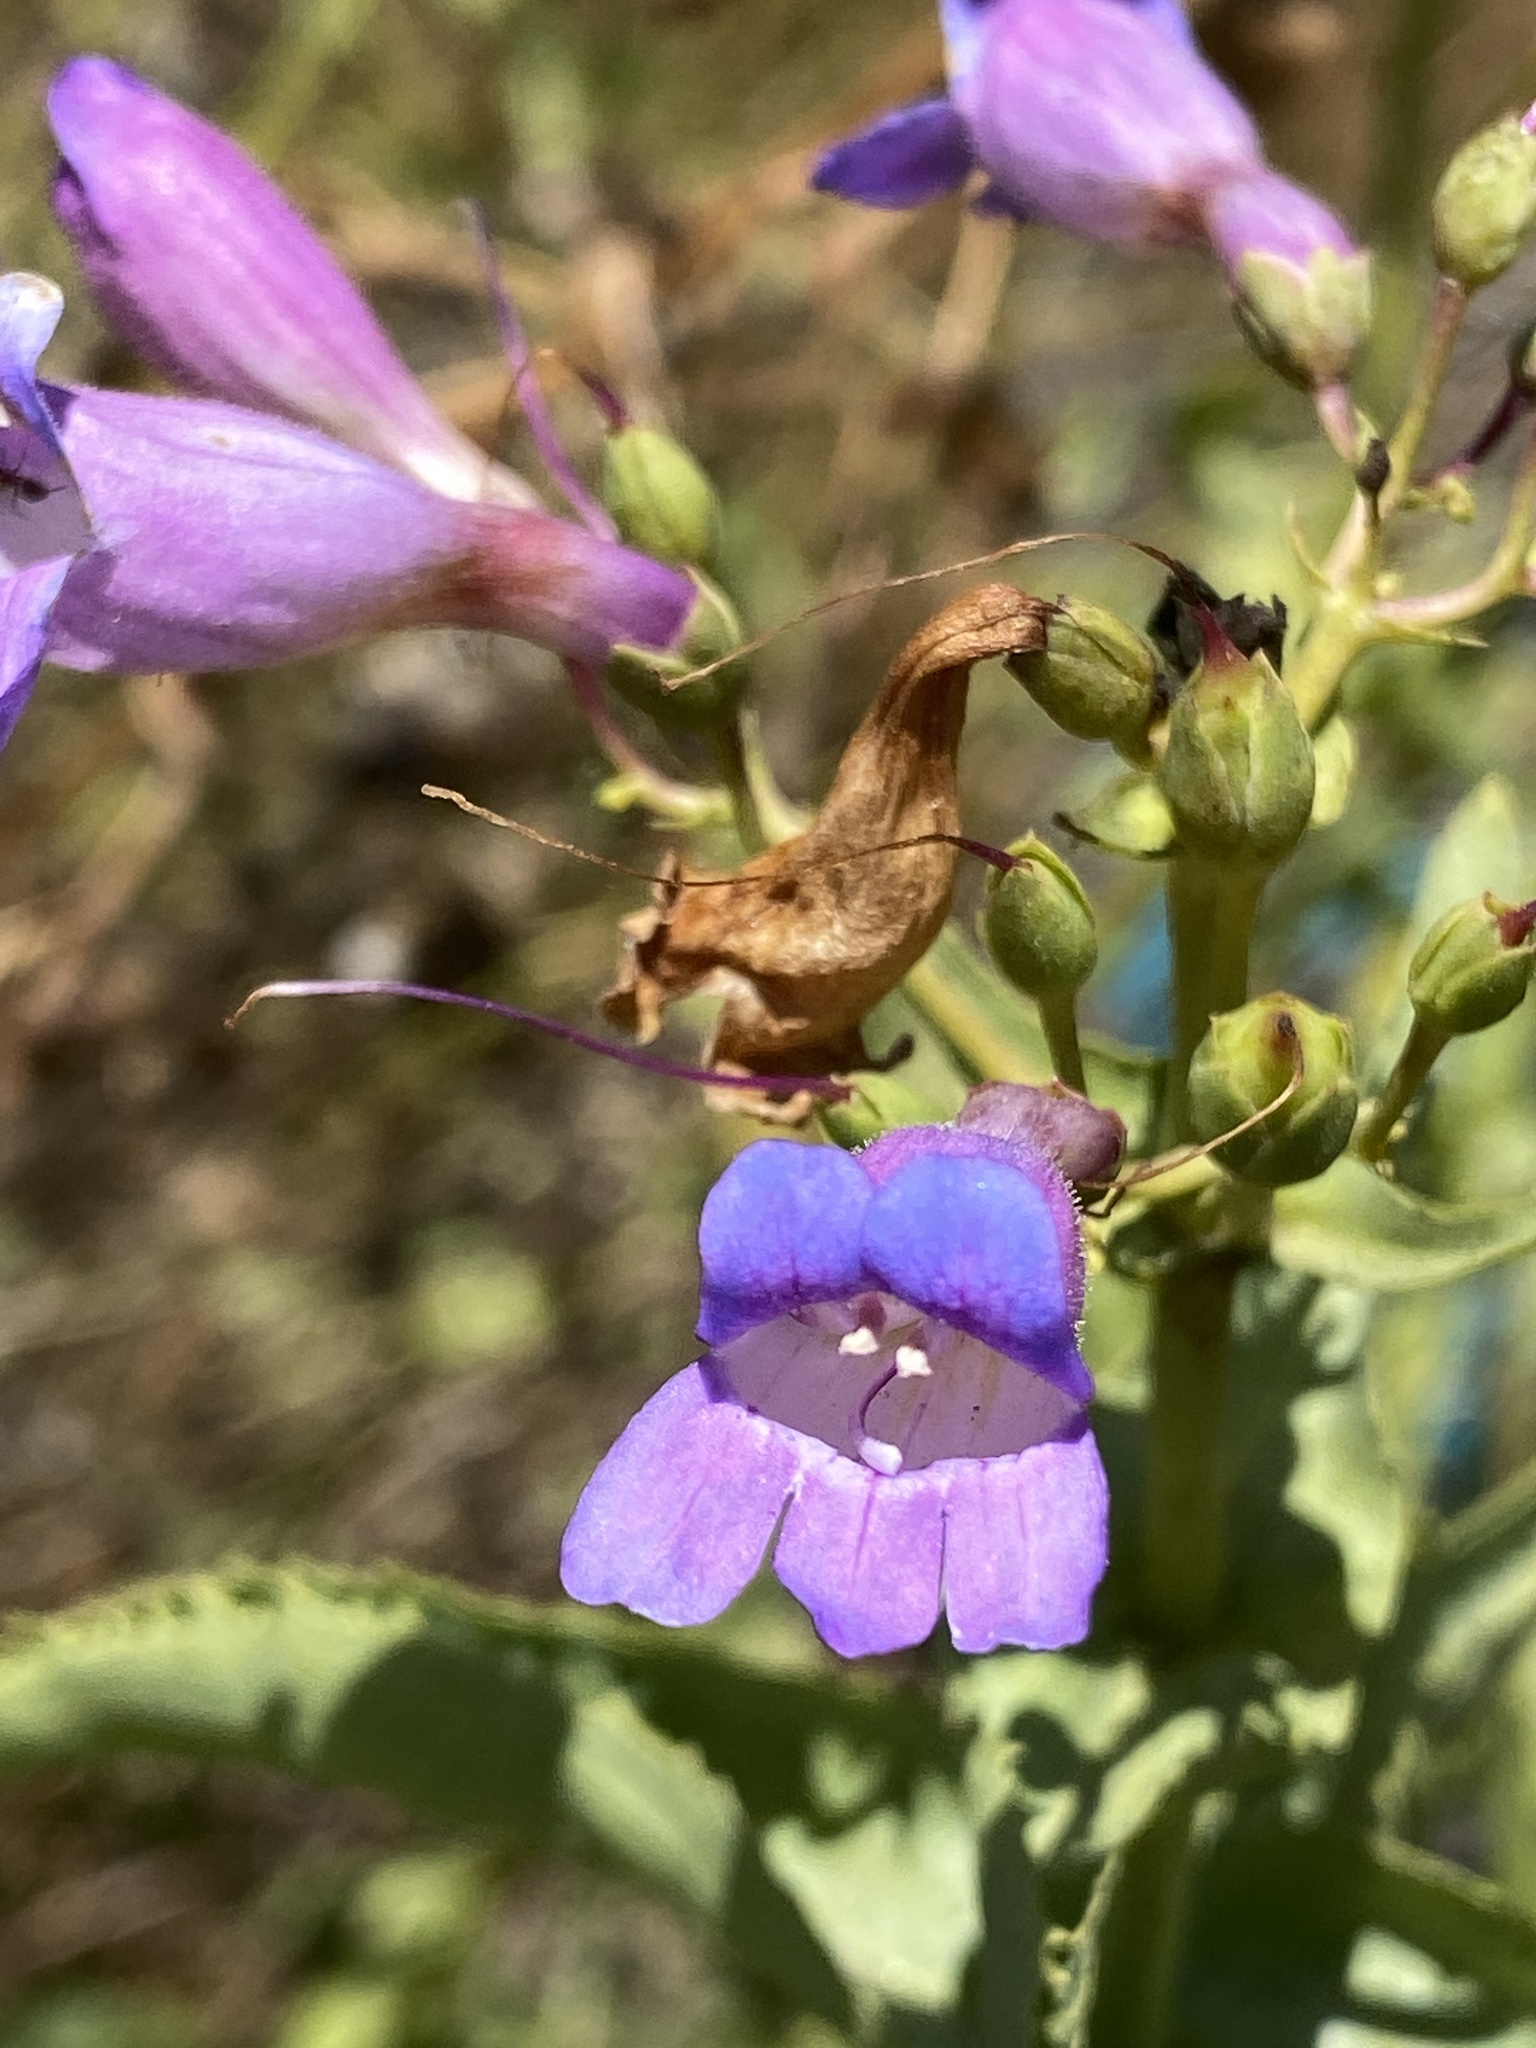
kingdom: Plantae
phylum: Tracheophyta
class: Magnoliopsida
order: Lamiales
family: Plantaginaceae
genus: Penstemon
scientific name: Penstemon spectabilis
